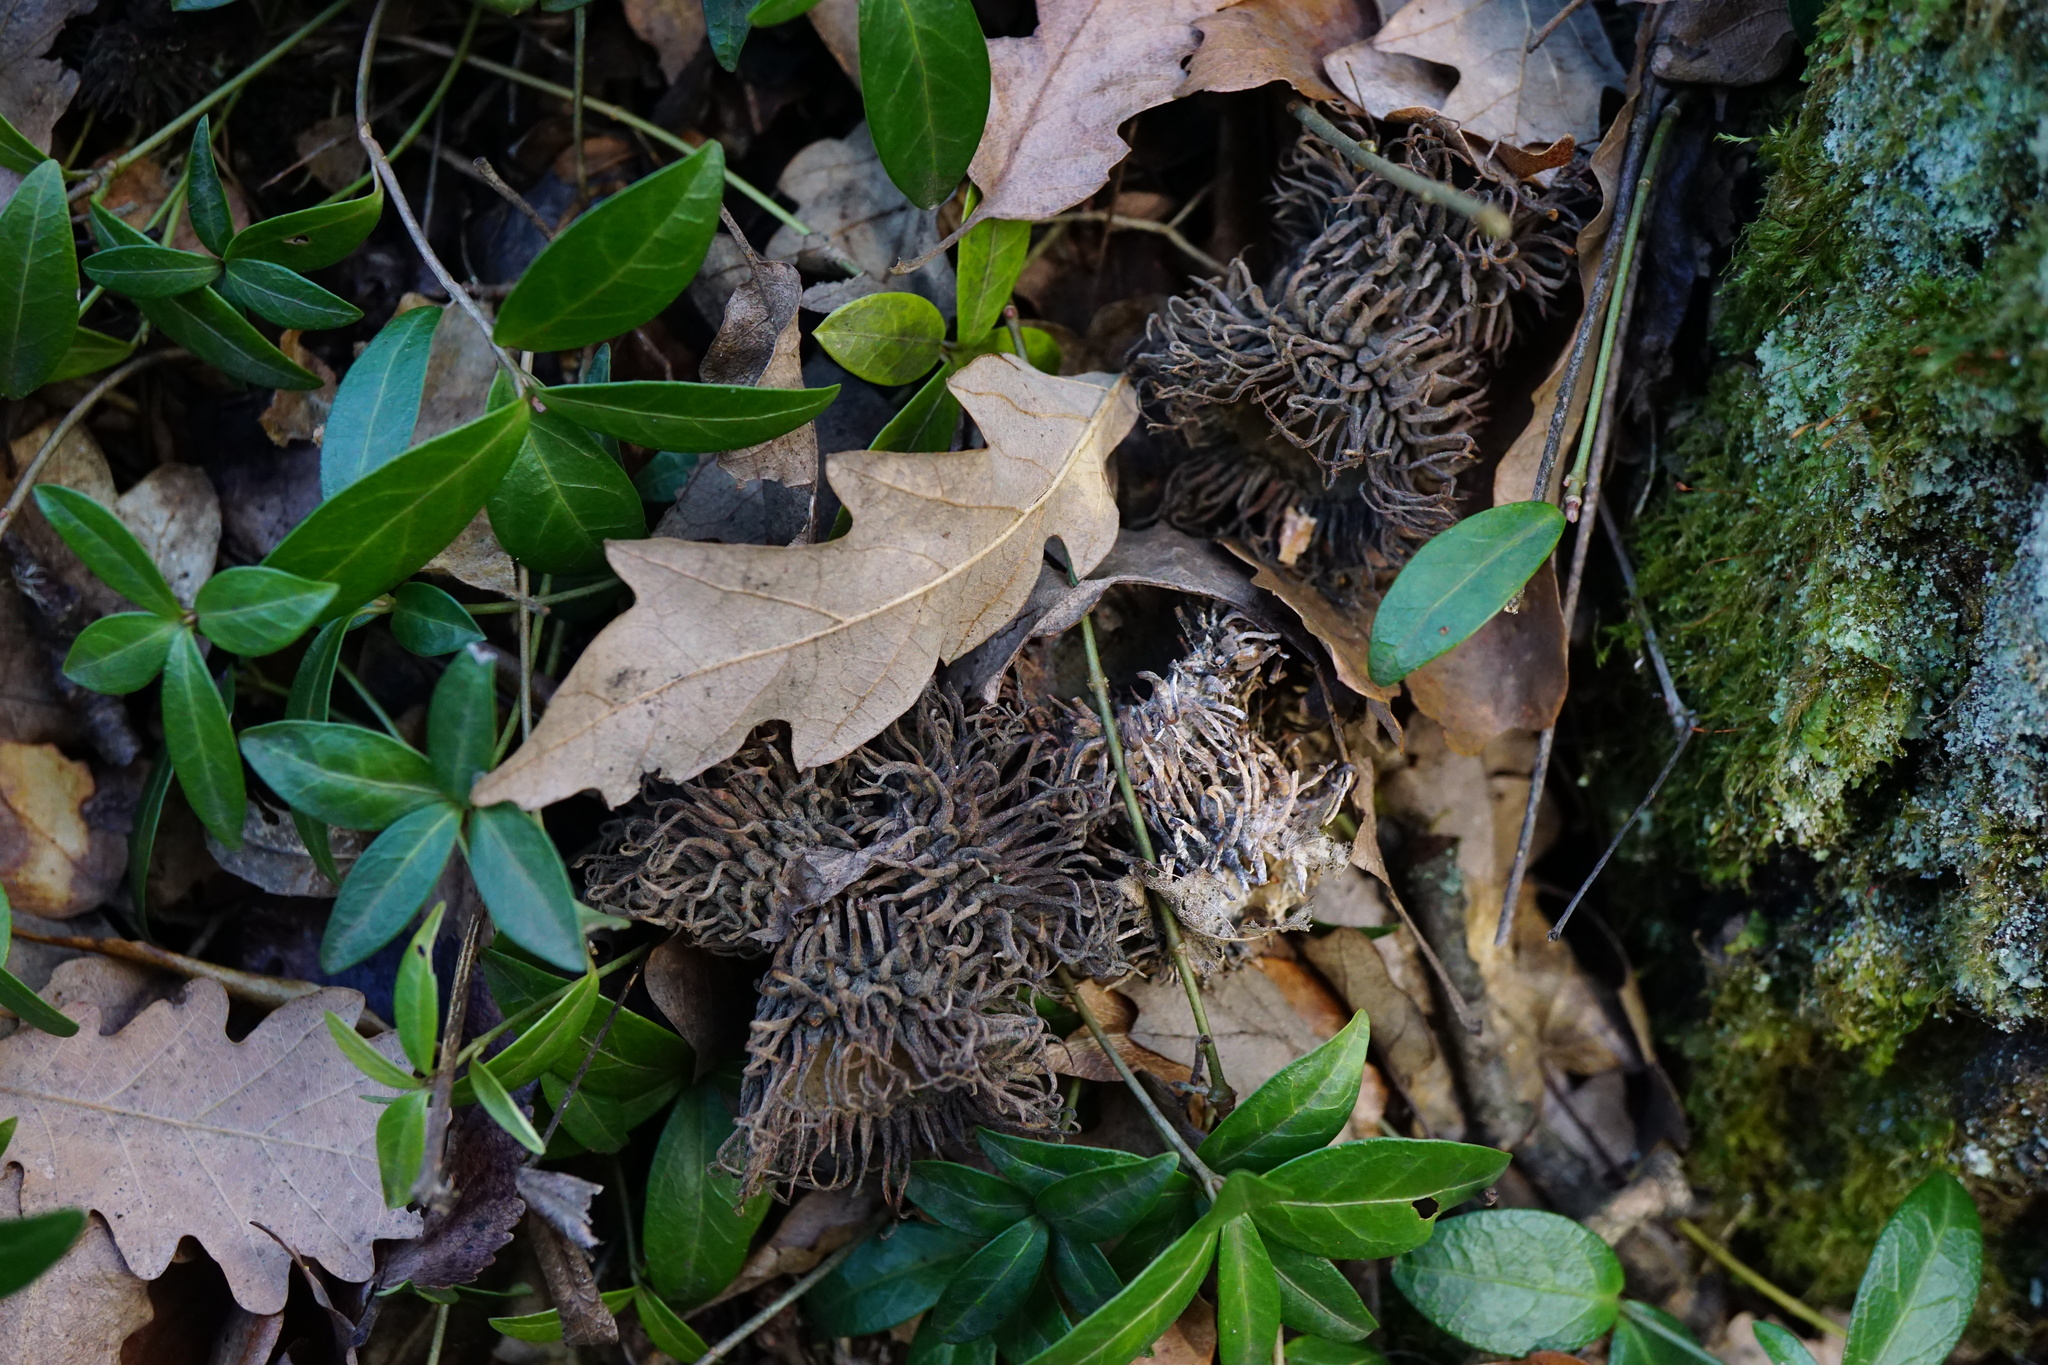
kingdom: Plantae
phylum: Tracheophyta
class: Magnoliopsida
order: Fagales
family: Fagaceae
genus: Quercus
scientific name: Quercus cerris
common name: Turkey oak
